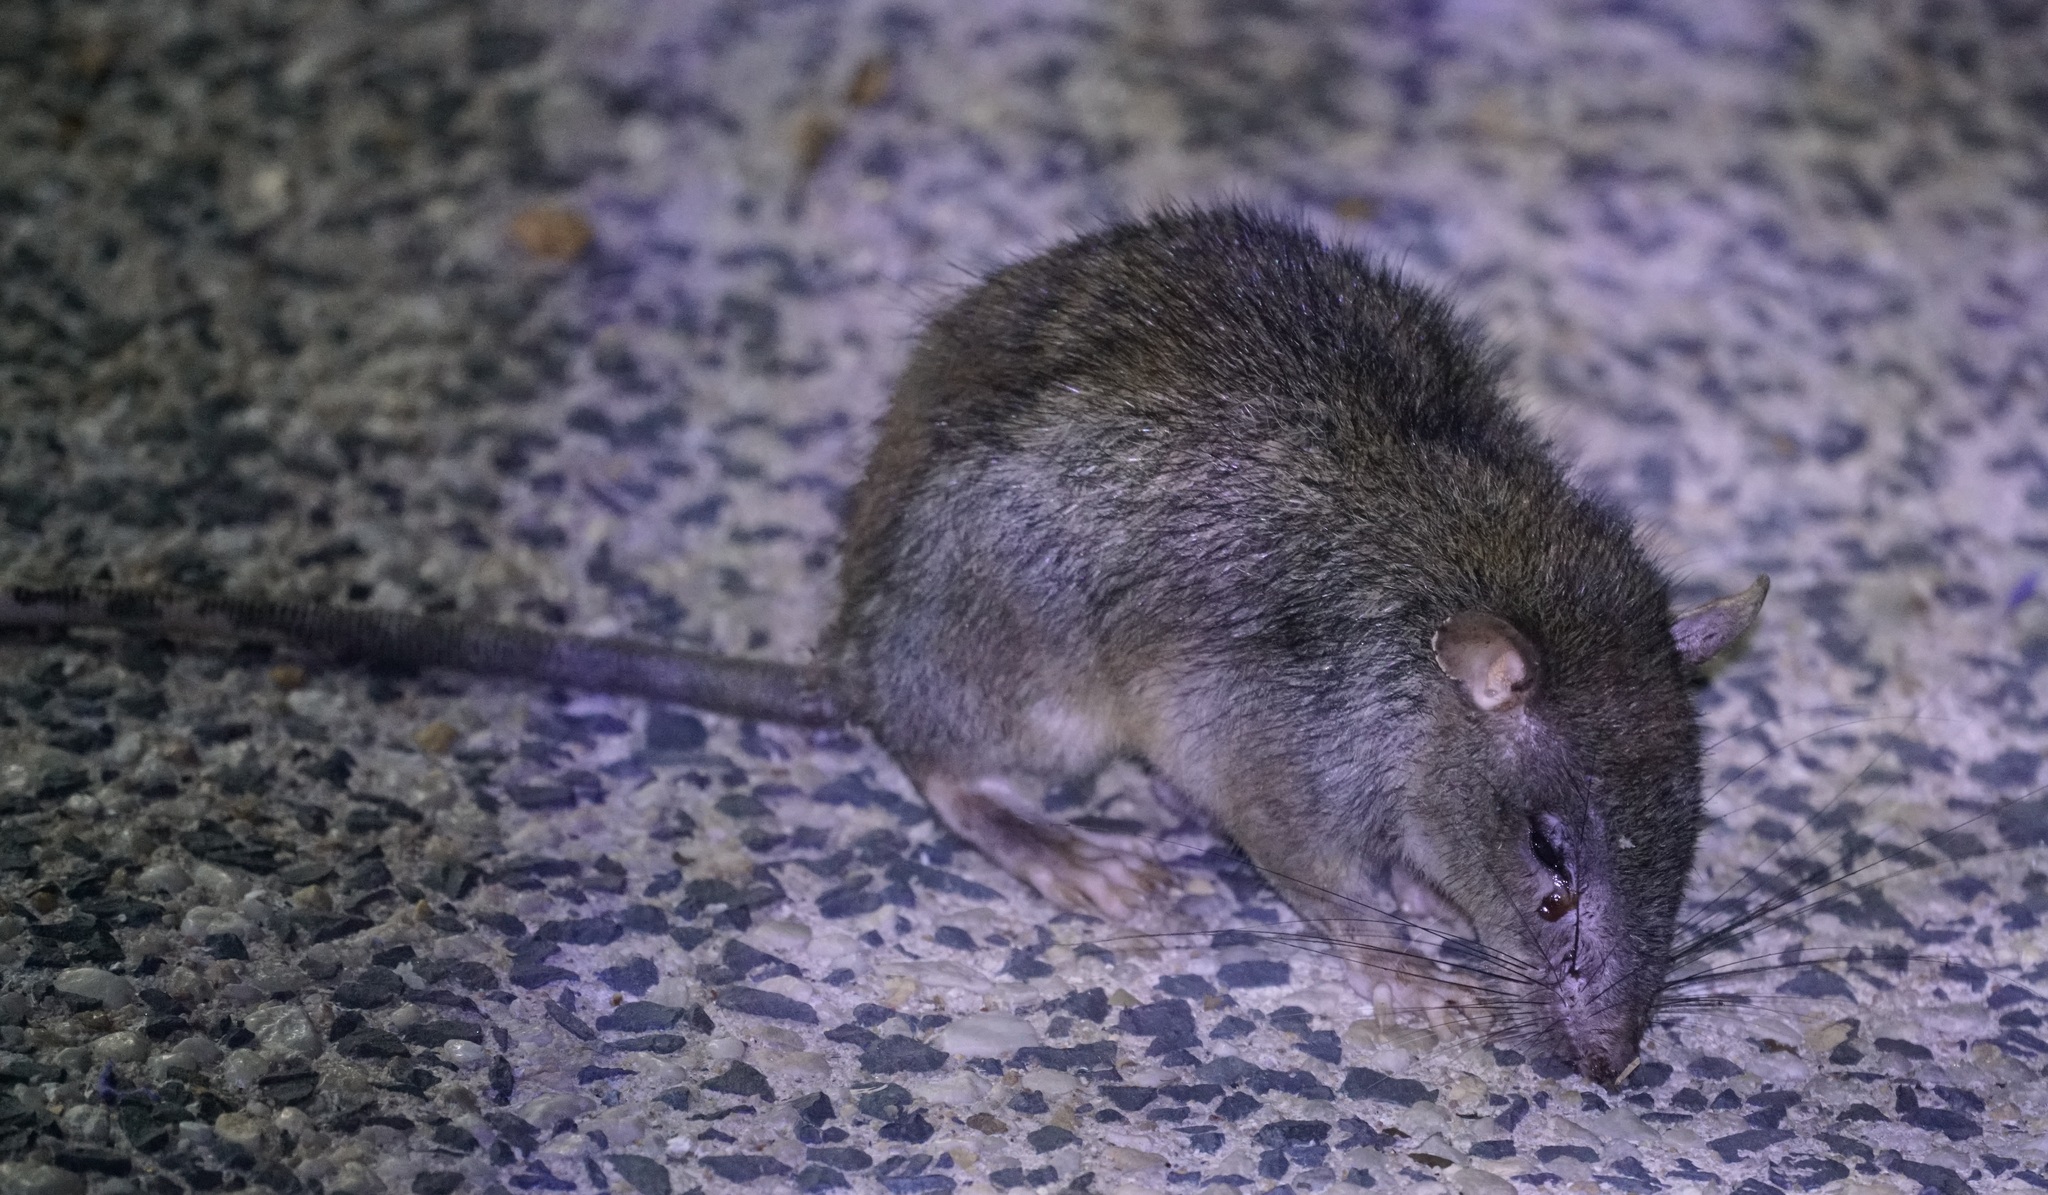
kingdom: Animalia
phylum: Chordata
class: Mammalia
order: Rodentia
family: Muridae
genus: Uromys
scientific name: Uromys caudimaculatus
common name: Giant white-tailed uromys
